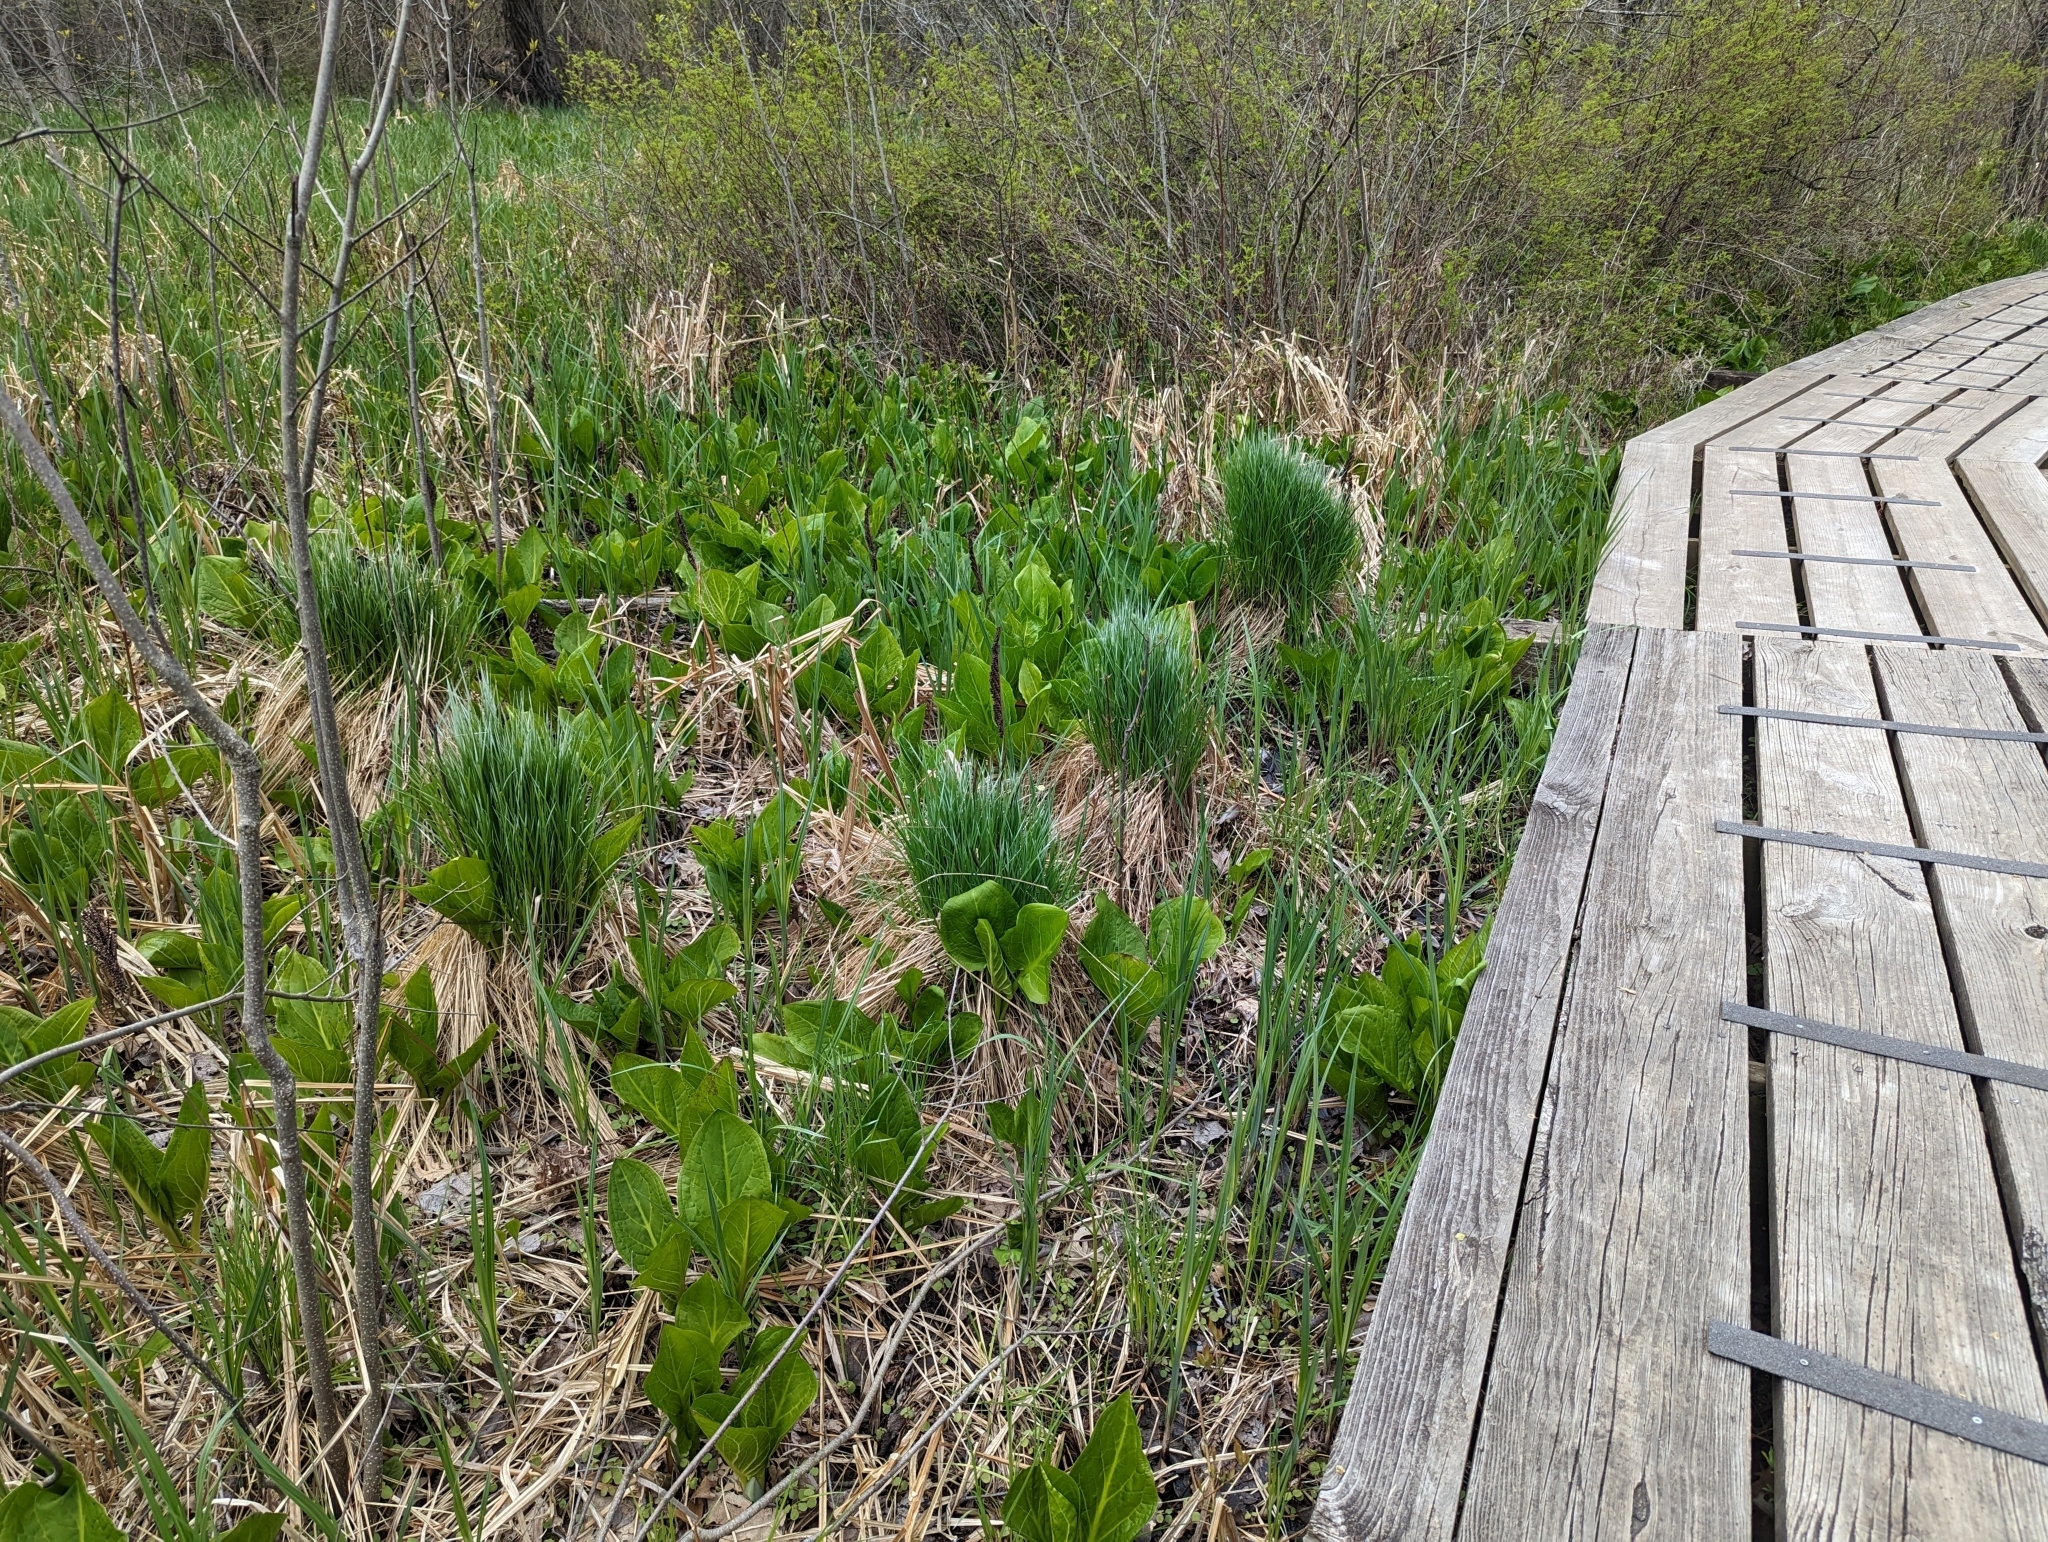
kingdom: Plantae
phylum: Tracheophyta
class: Liliopsida
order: Poales
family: Cyperaceae
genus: Carex
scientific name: Carex stricta
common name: Hummock sedge
